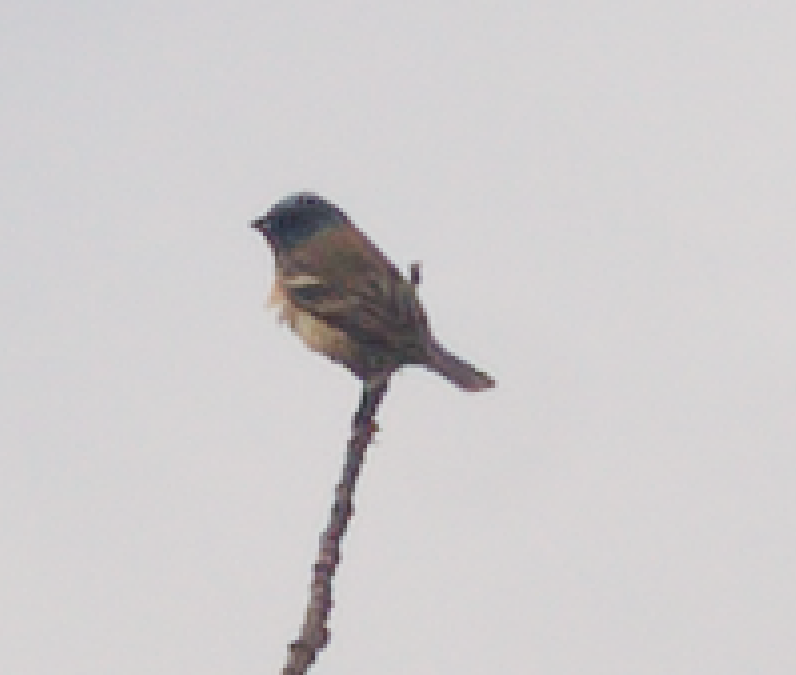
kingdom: Animalia
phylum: Chordata
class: Aves
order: Passeriformes
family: Cardinalidae
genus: Passerina
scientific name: Passerina amoena
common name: Lazuli bunting
